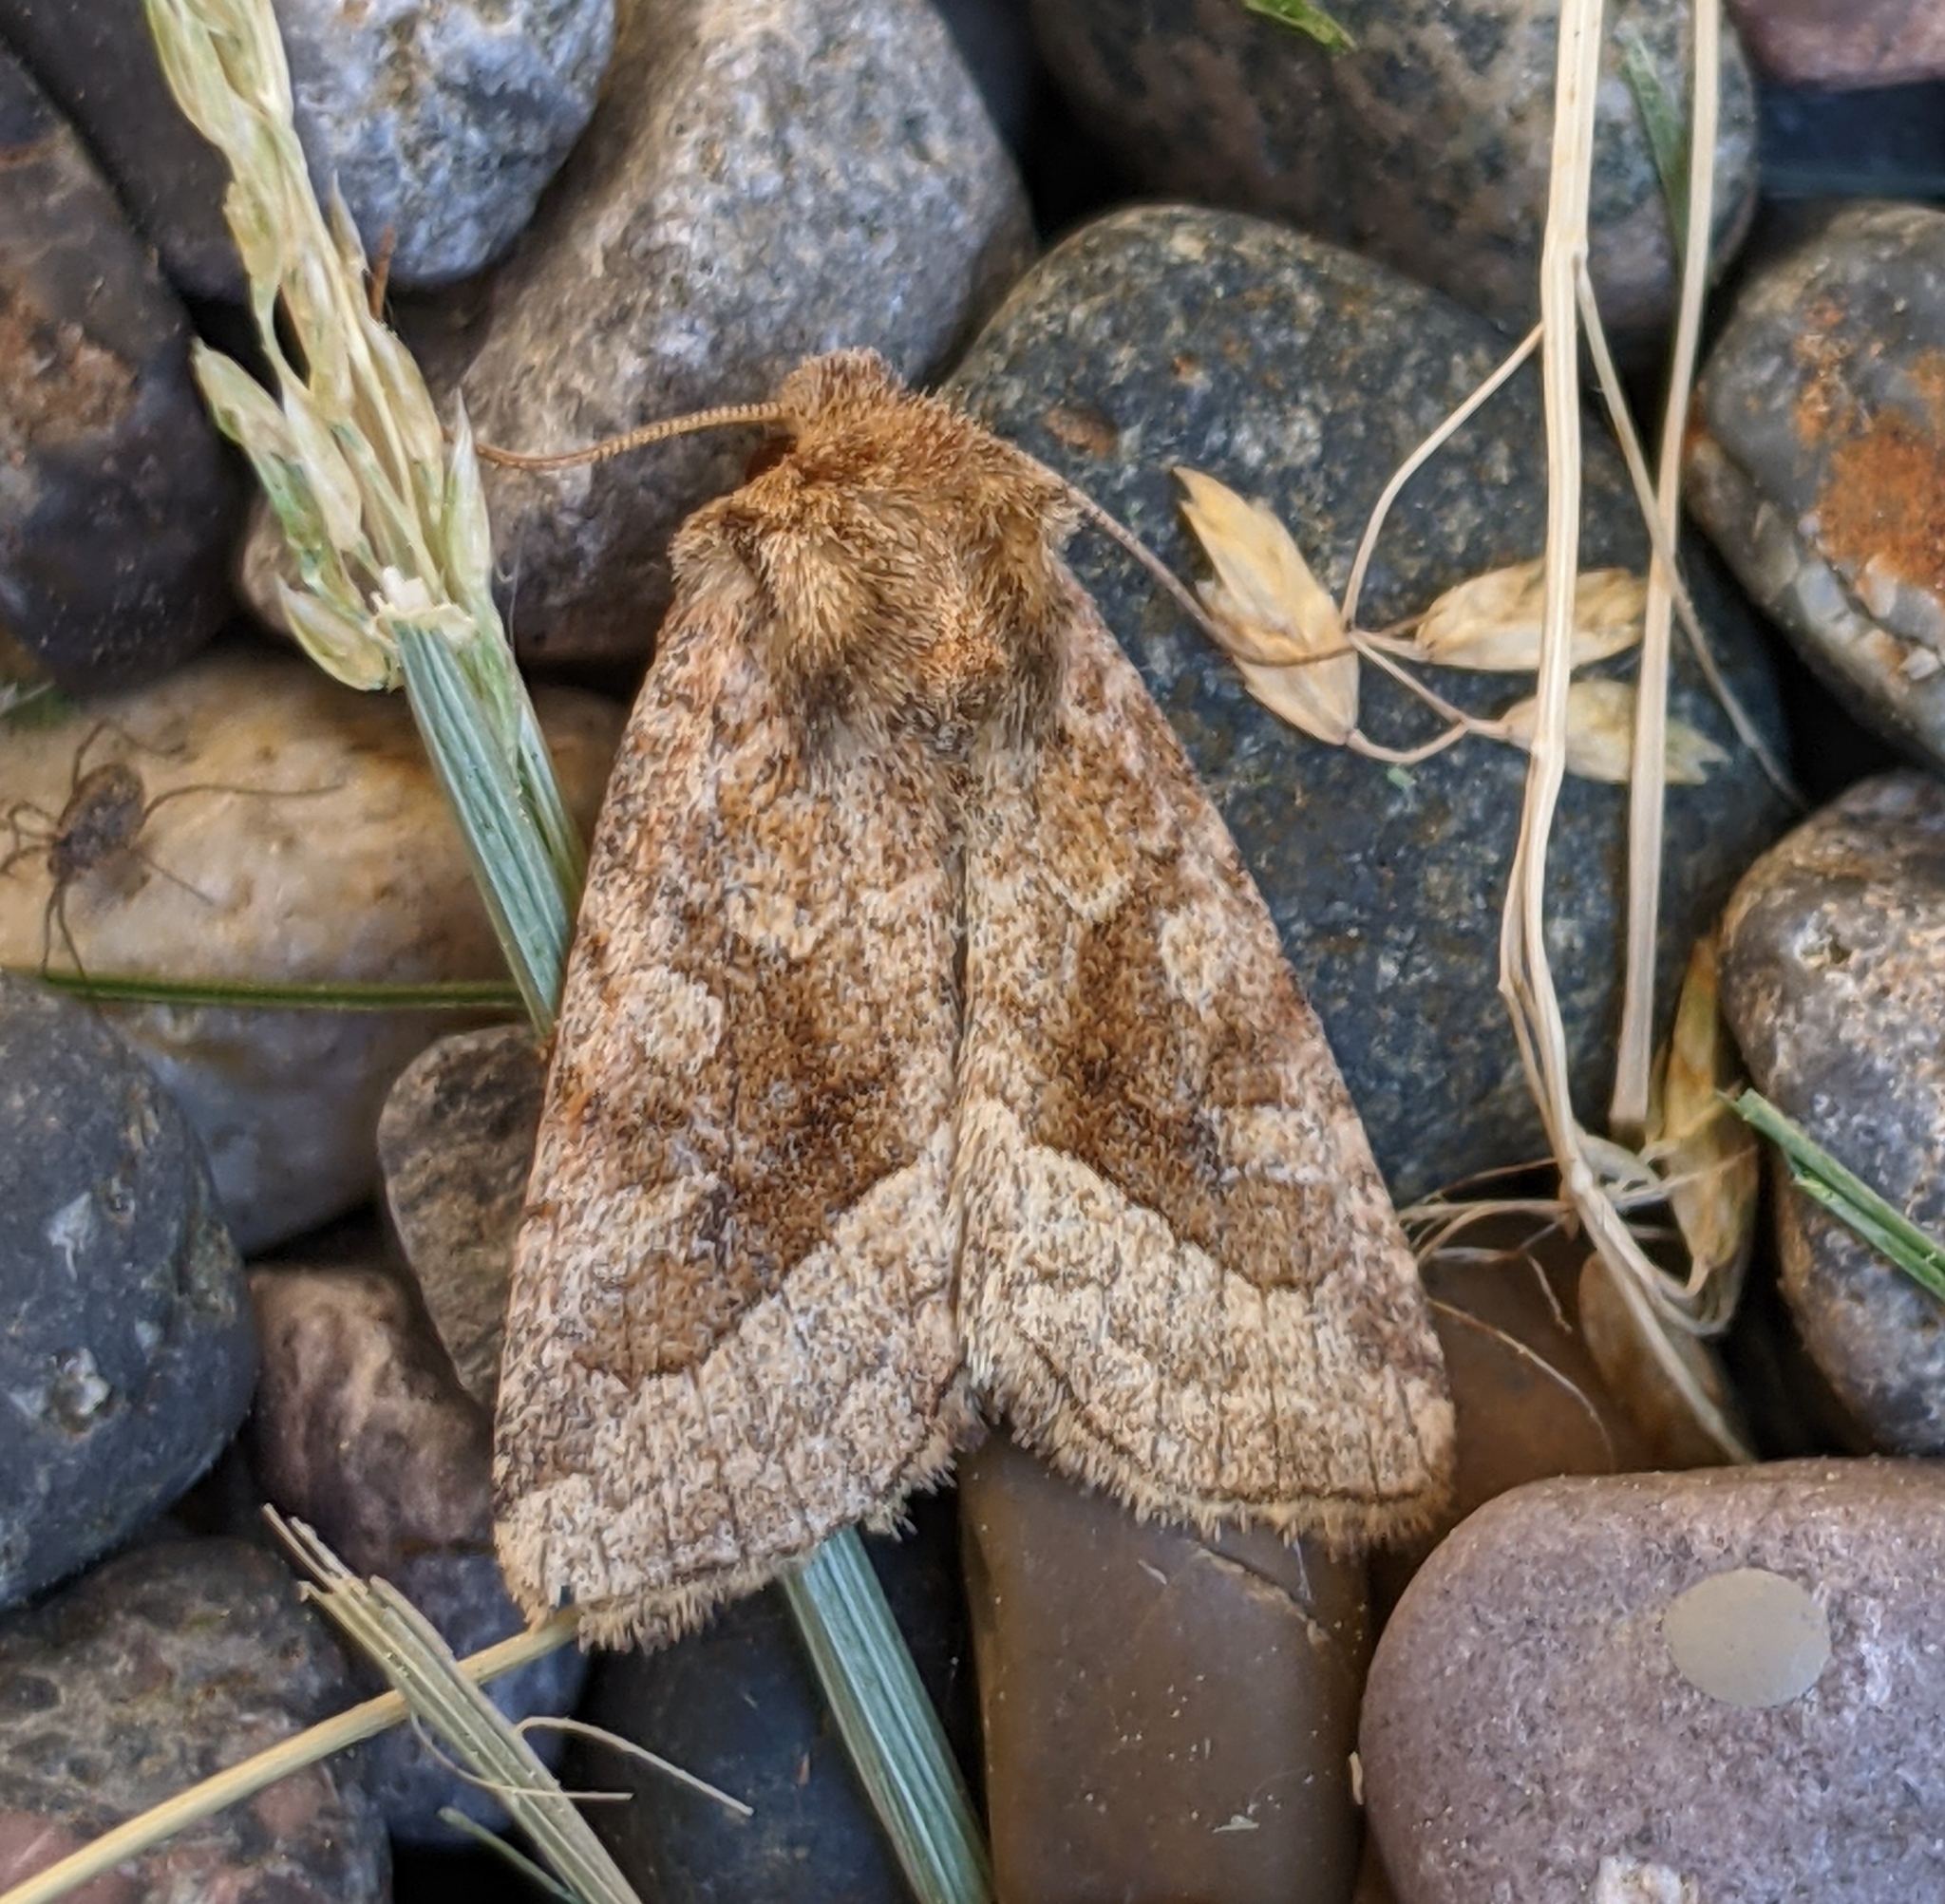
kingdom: Animalia
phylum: Arthropoda
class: Insecta
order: Lepidoptera
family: Noctuidae
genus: Lacinipolia
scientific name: Lacinipolia lorea
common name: Bridled arches moth
